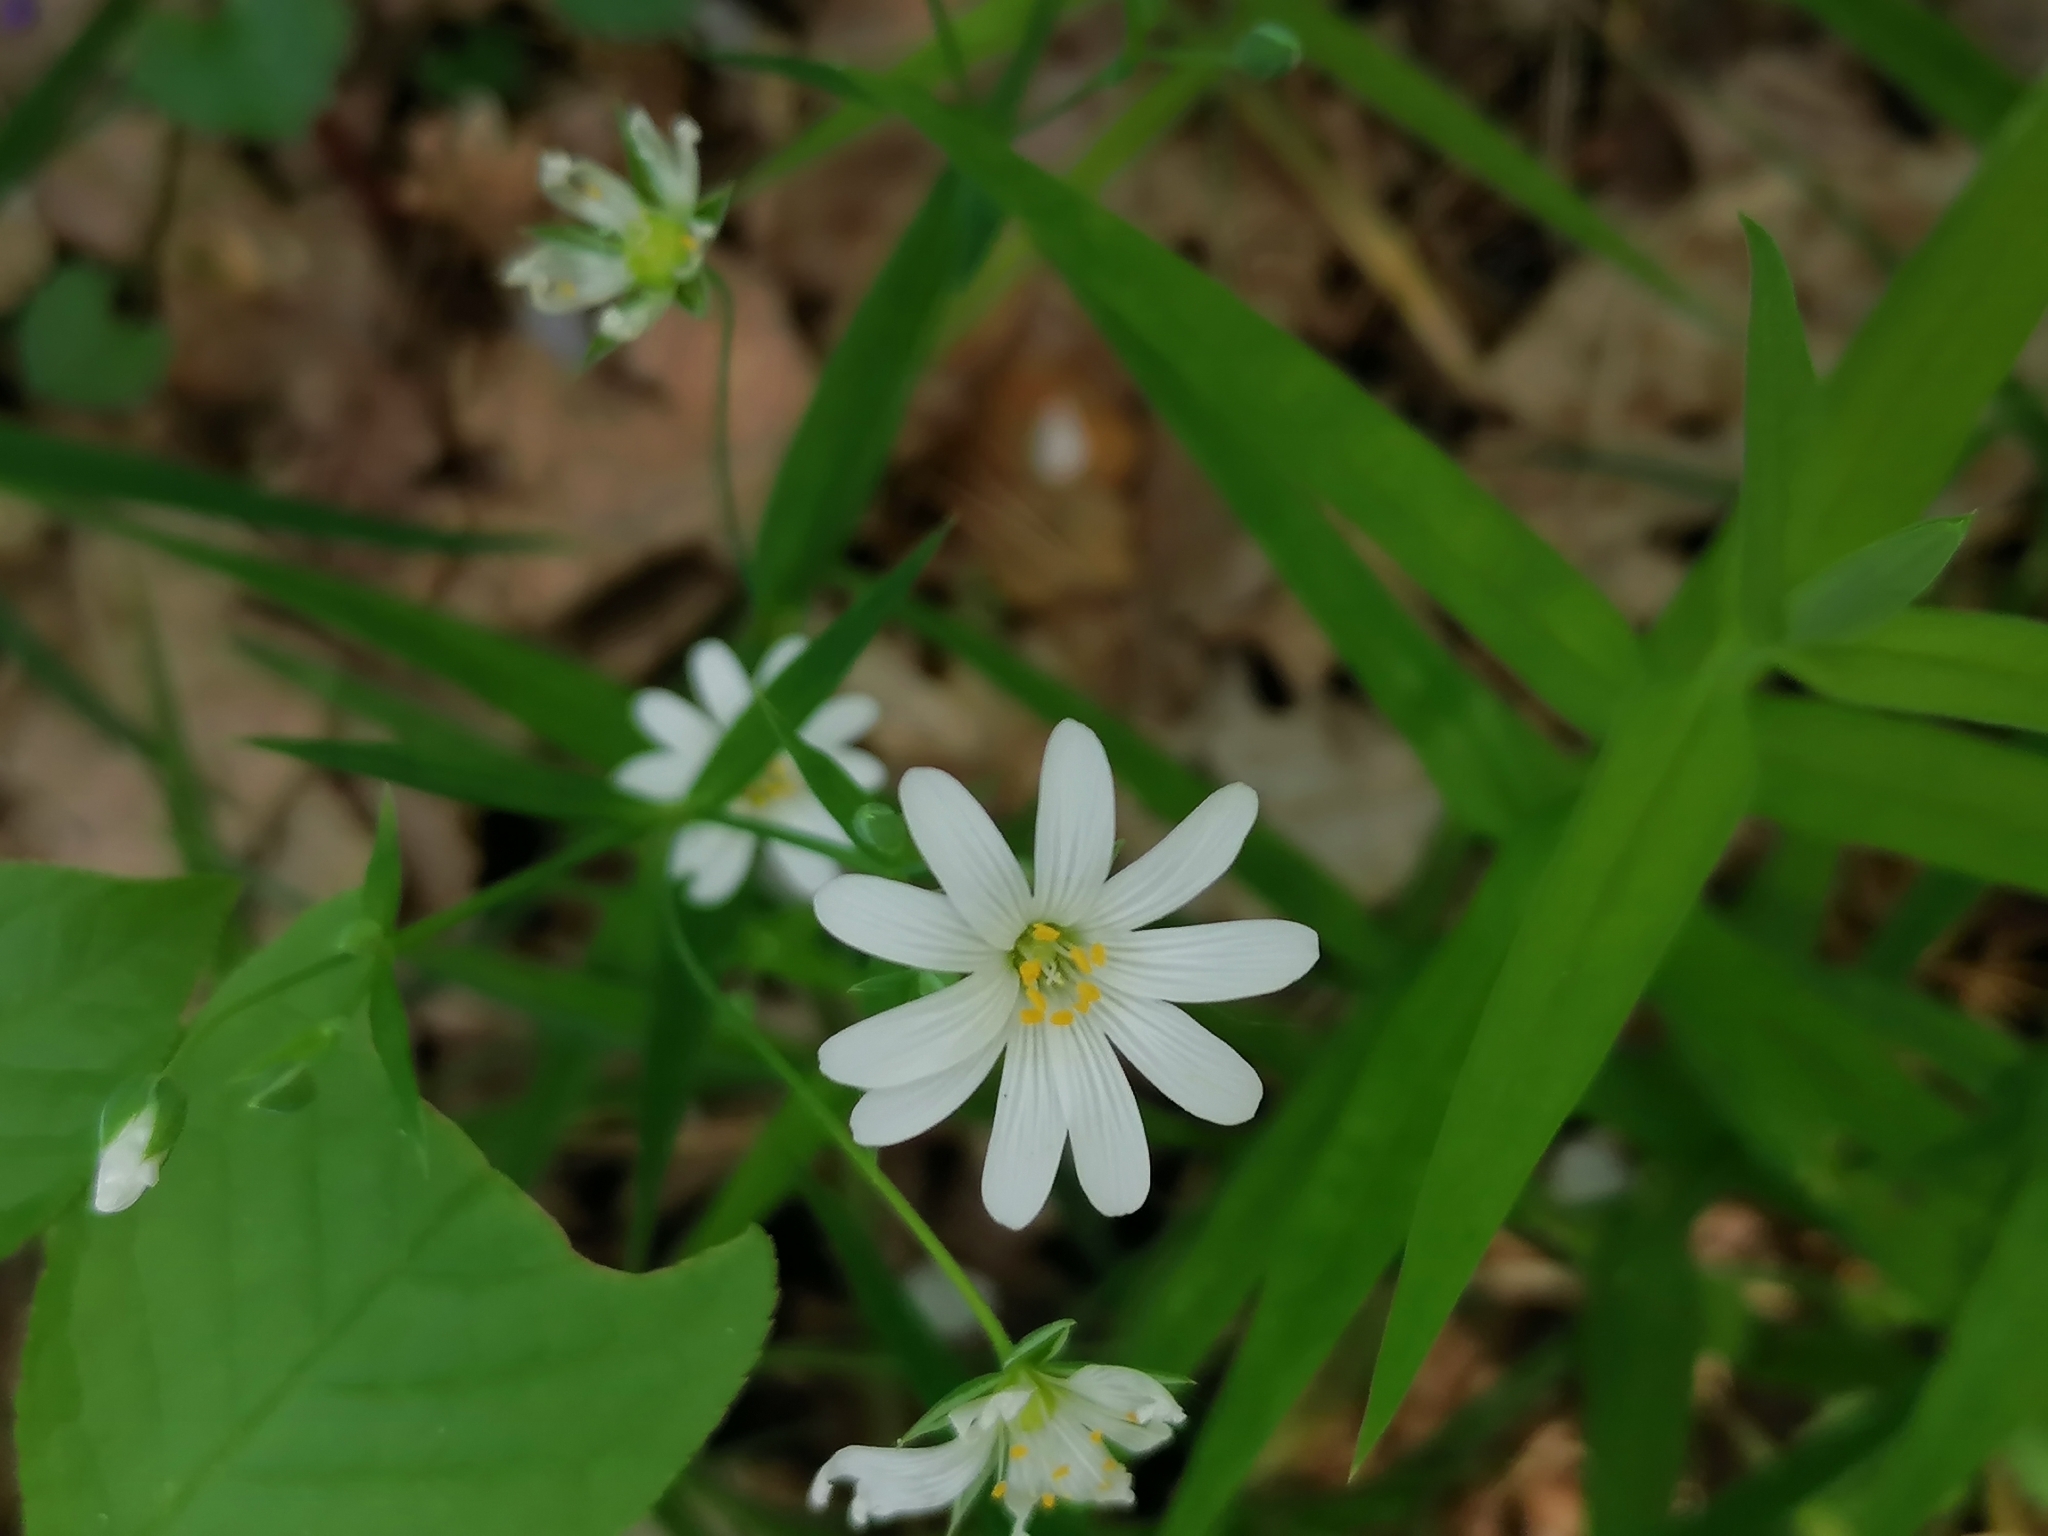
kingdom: Plantae
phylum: Tracheophyta
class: Magnoliopsida
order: Caryophyllales
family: Caryophyllaceae
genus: Rabelera
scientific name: Rabelera holostea
